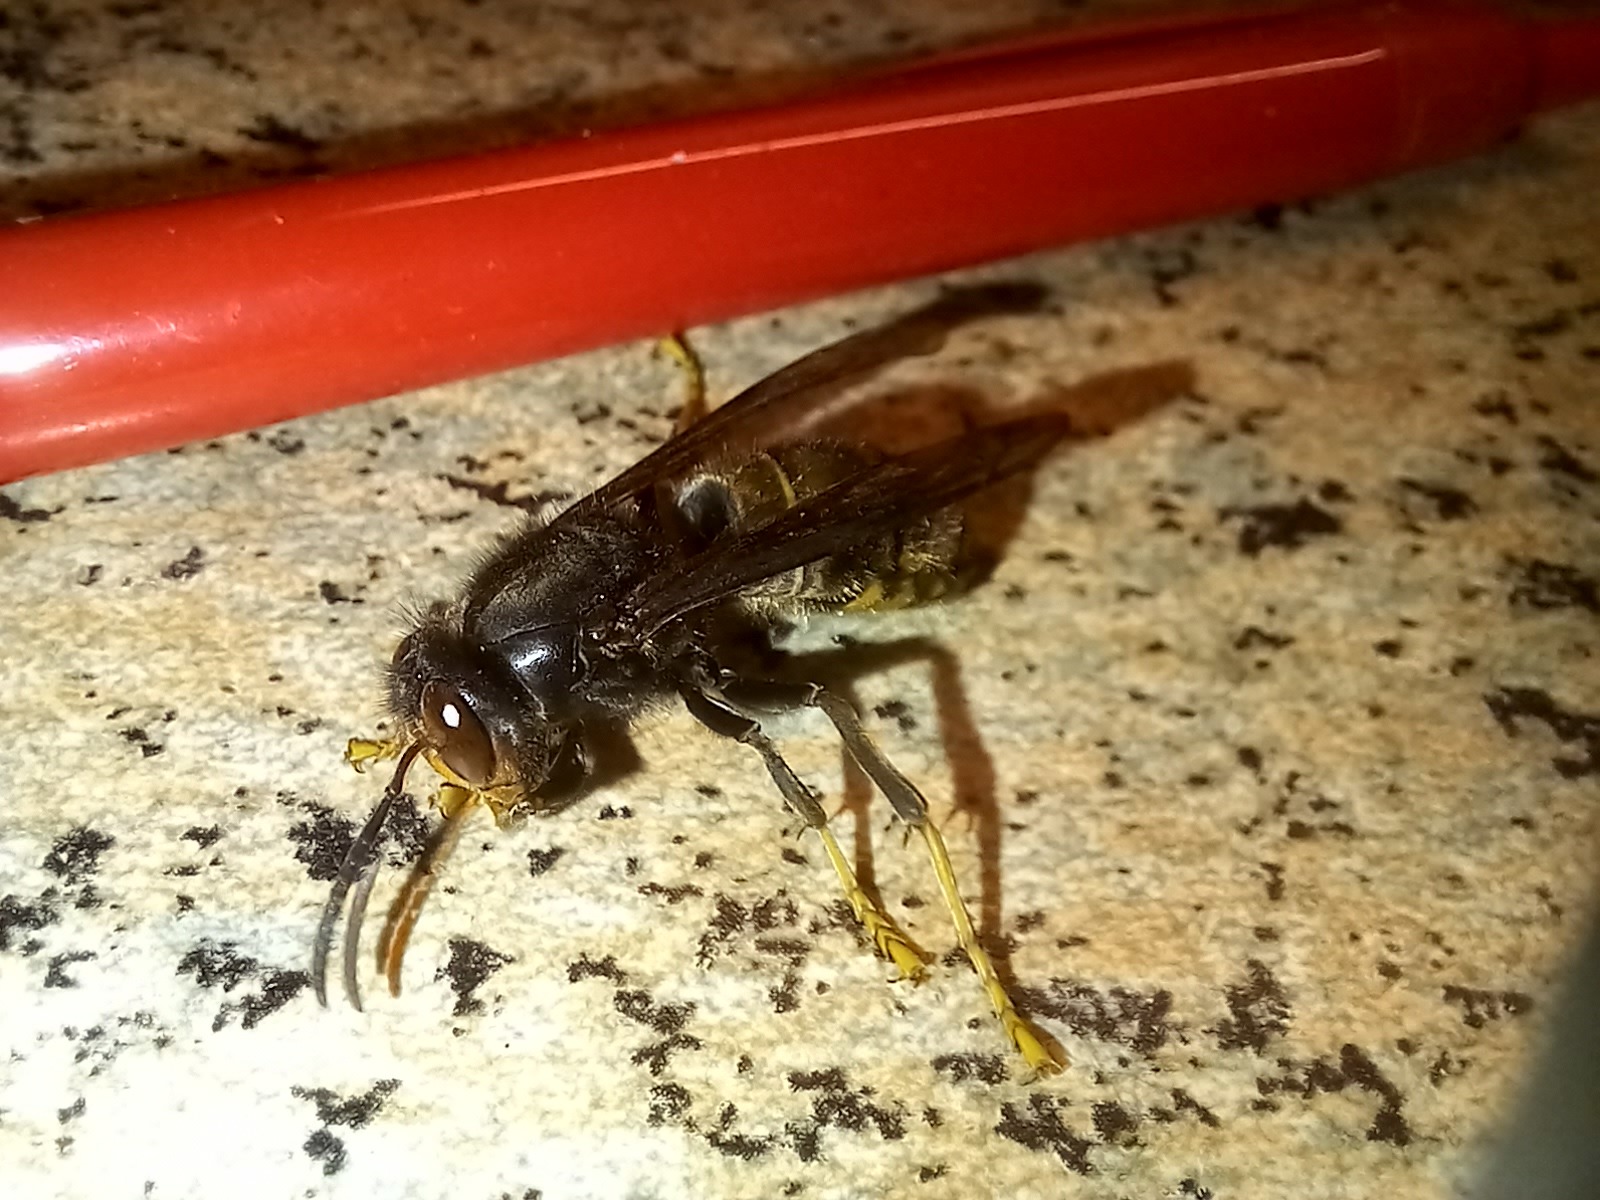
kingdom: Animalia
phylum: Arthropoda
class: Insecta
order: Hymenoptera
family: Vespidae
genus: Vespa
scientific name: Vespa velutina
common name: Asian hornet
